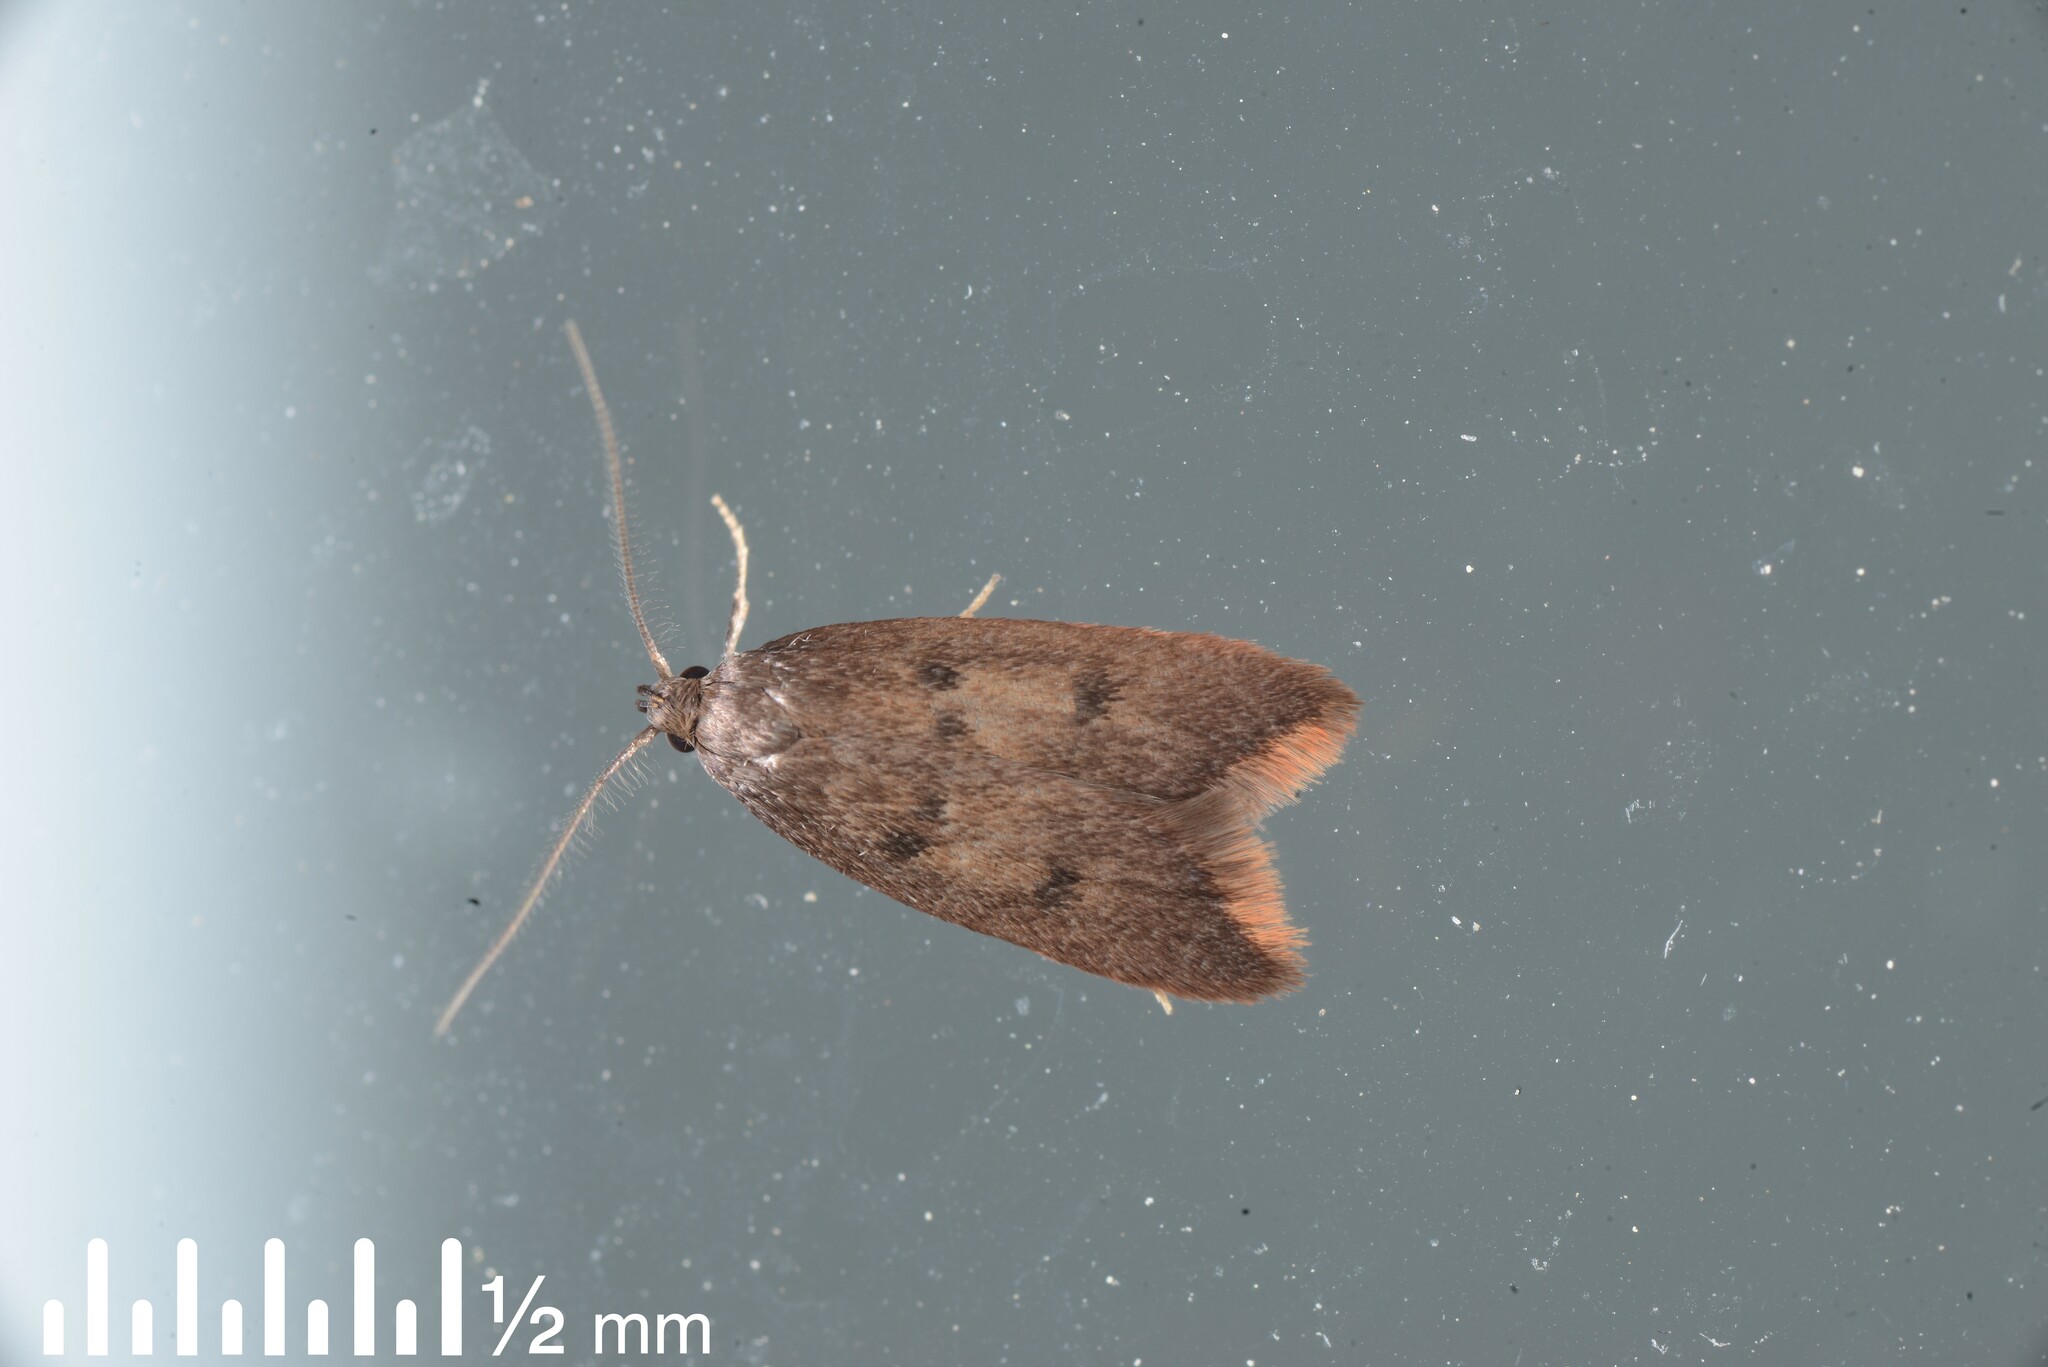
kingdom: Animalia
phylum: Arthropoda
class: Insecta
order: Lepidoptera
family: Oecophoridae
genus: Tachystola
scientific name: Tachystola acroxantha
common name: Ruddy streak
